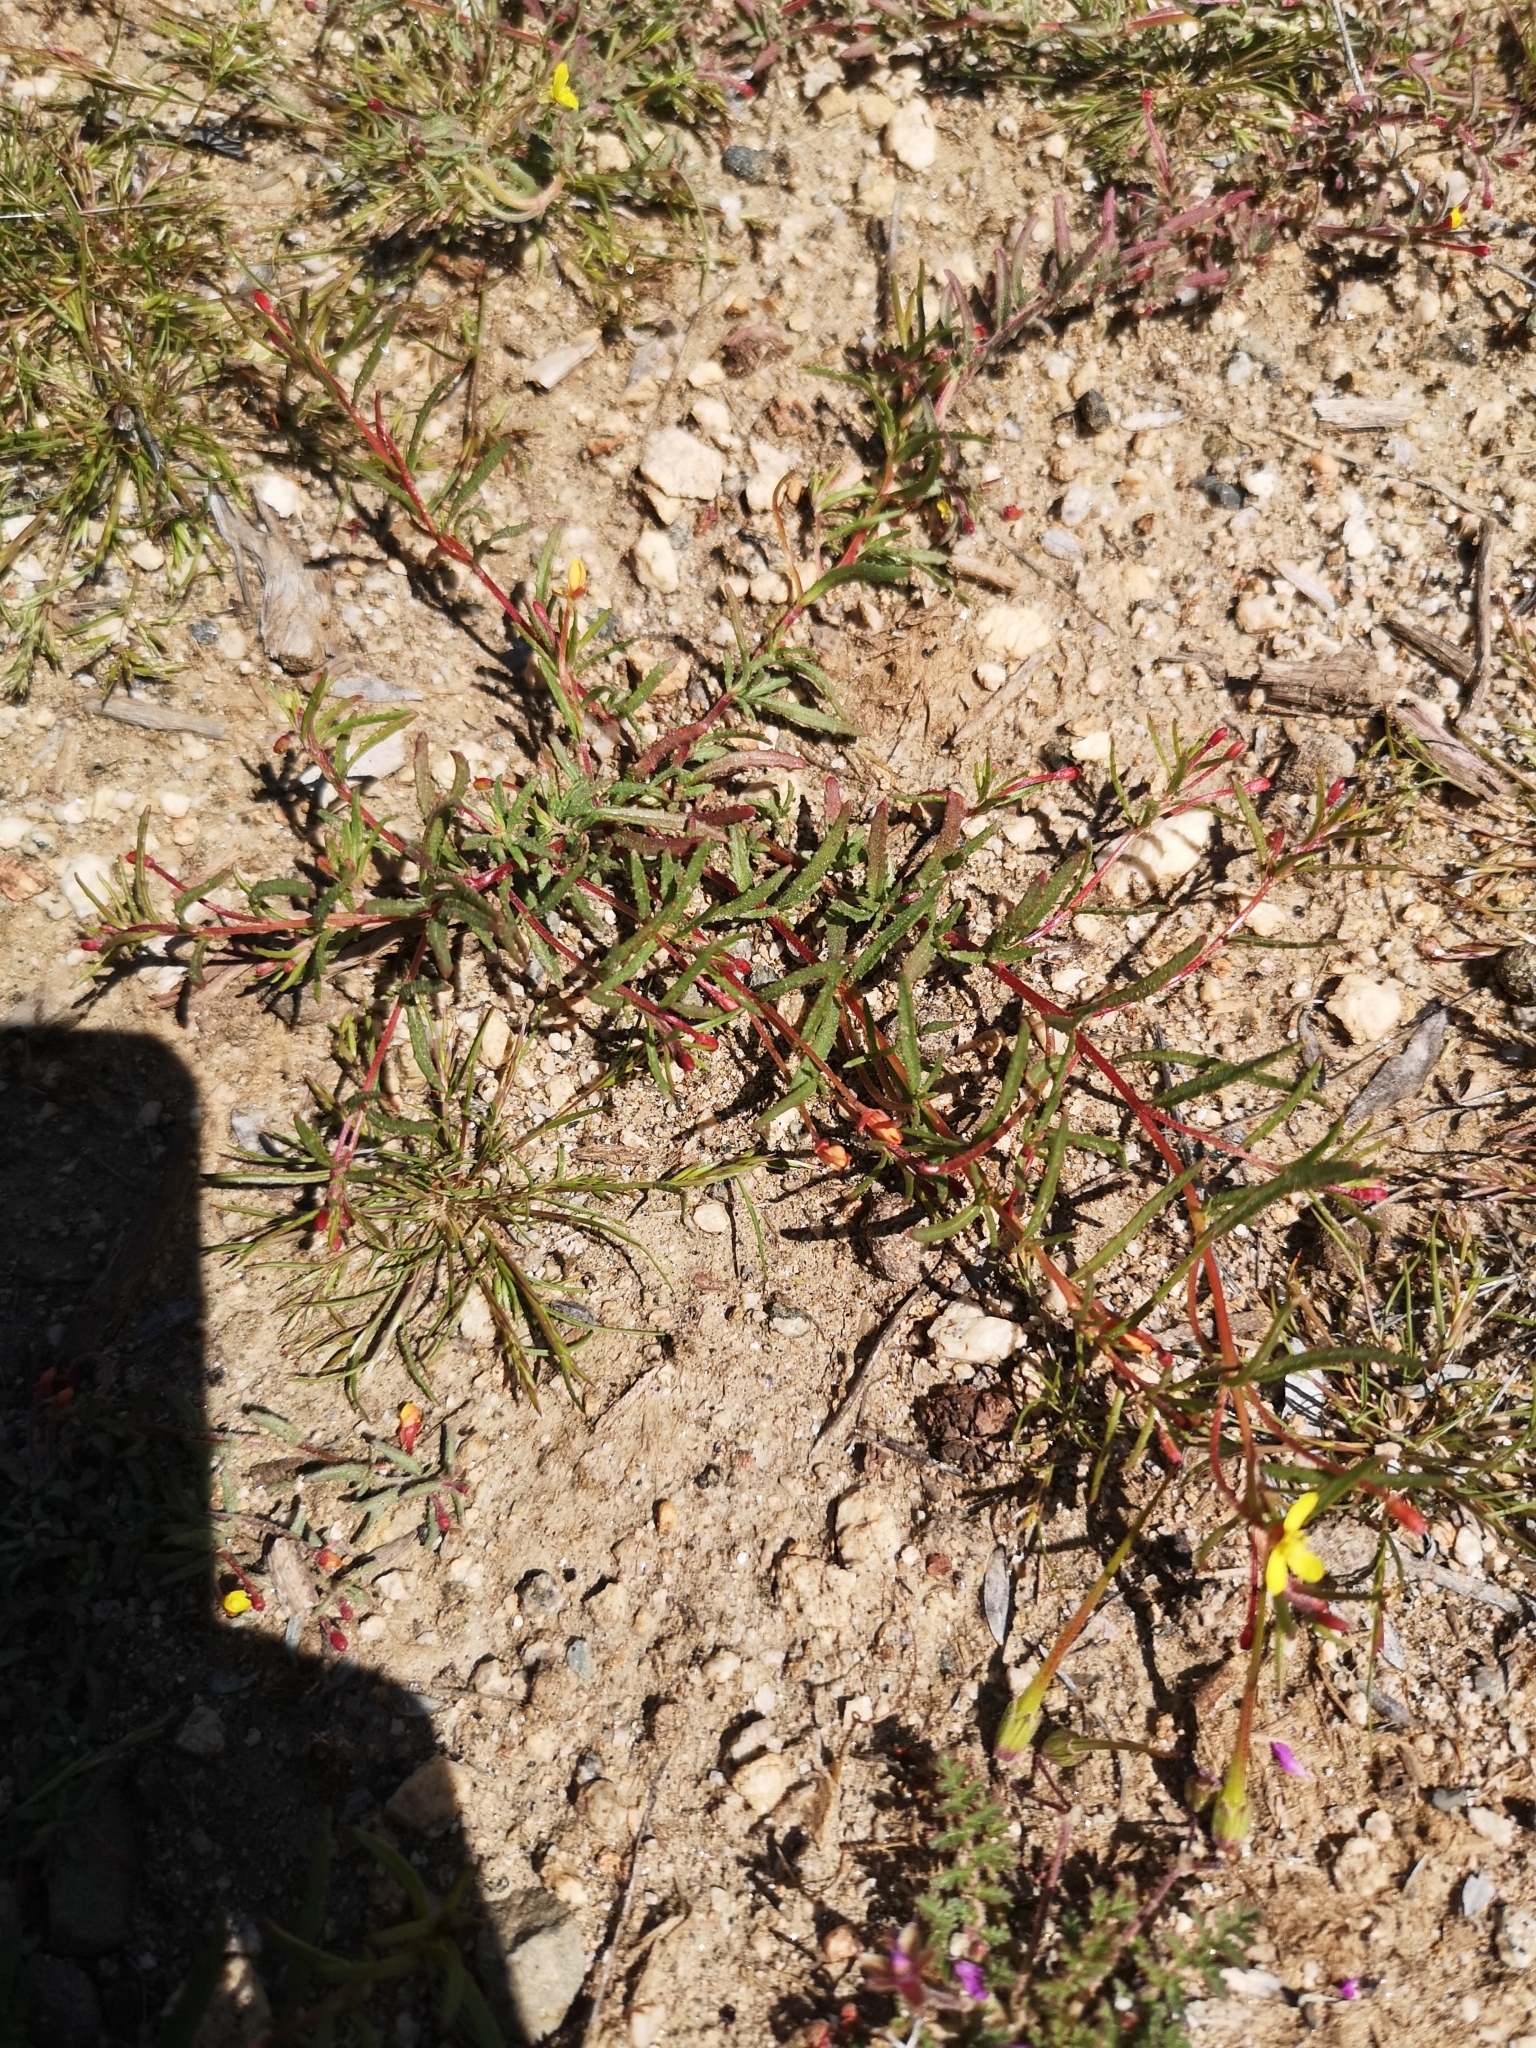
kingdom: Plantae
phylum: Tracheophyta
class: Magnoliopsida
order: Myrtales
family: Onagraceae
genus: Camissonia
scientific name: Camissonia strigulosa
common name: Contorted-primrose
